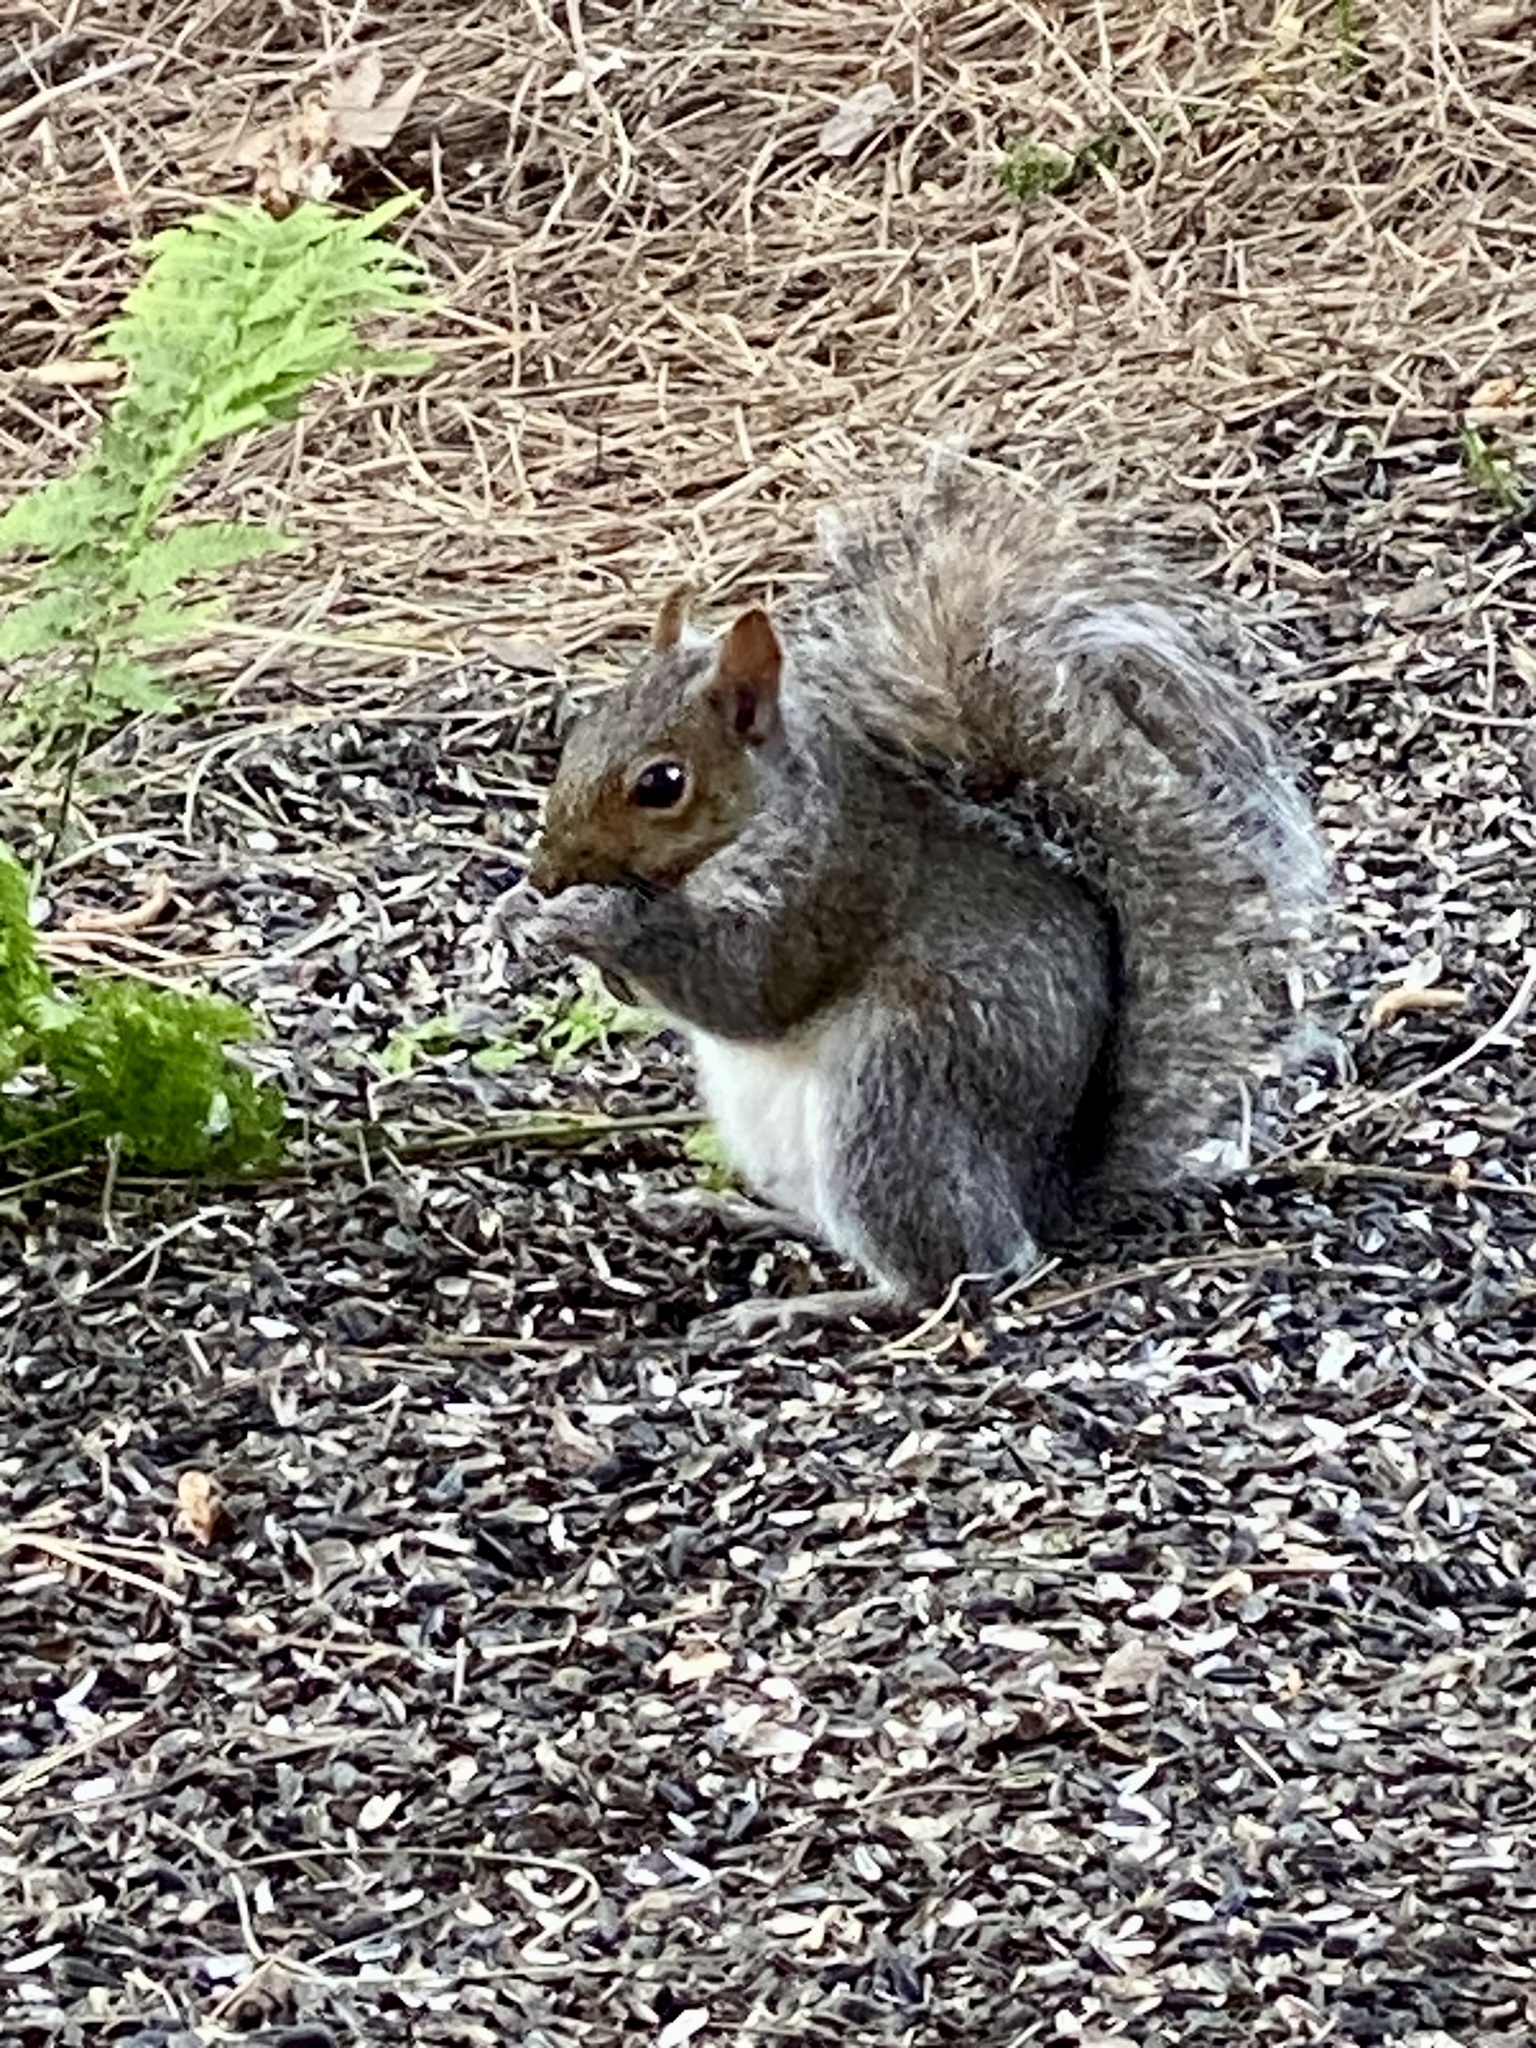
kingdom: Animalia
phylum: Chordata
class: Mammalia
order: Rodentia
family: Sciuridae
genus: Sciurus
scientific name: Sciurus carolinensis
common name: Eastern gray squirrel
